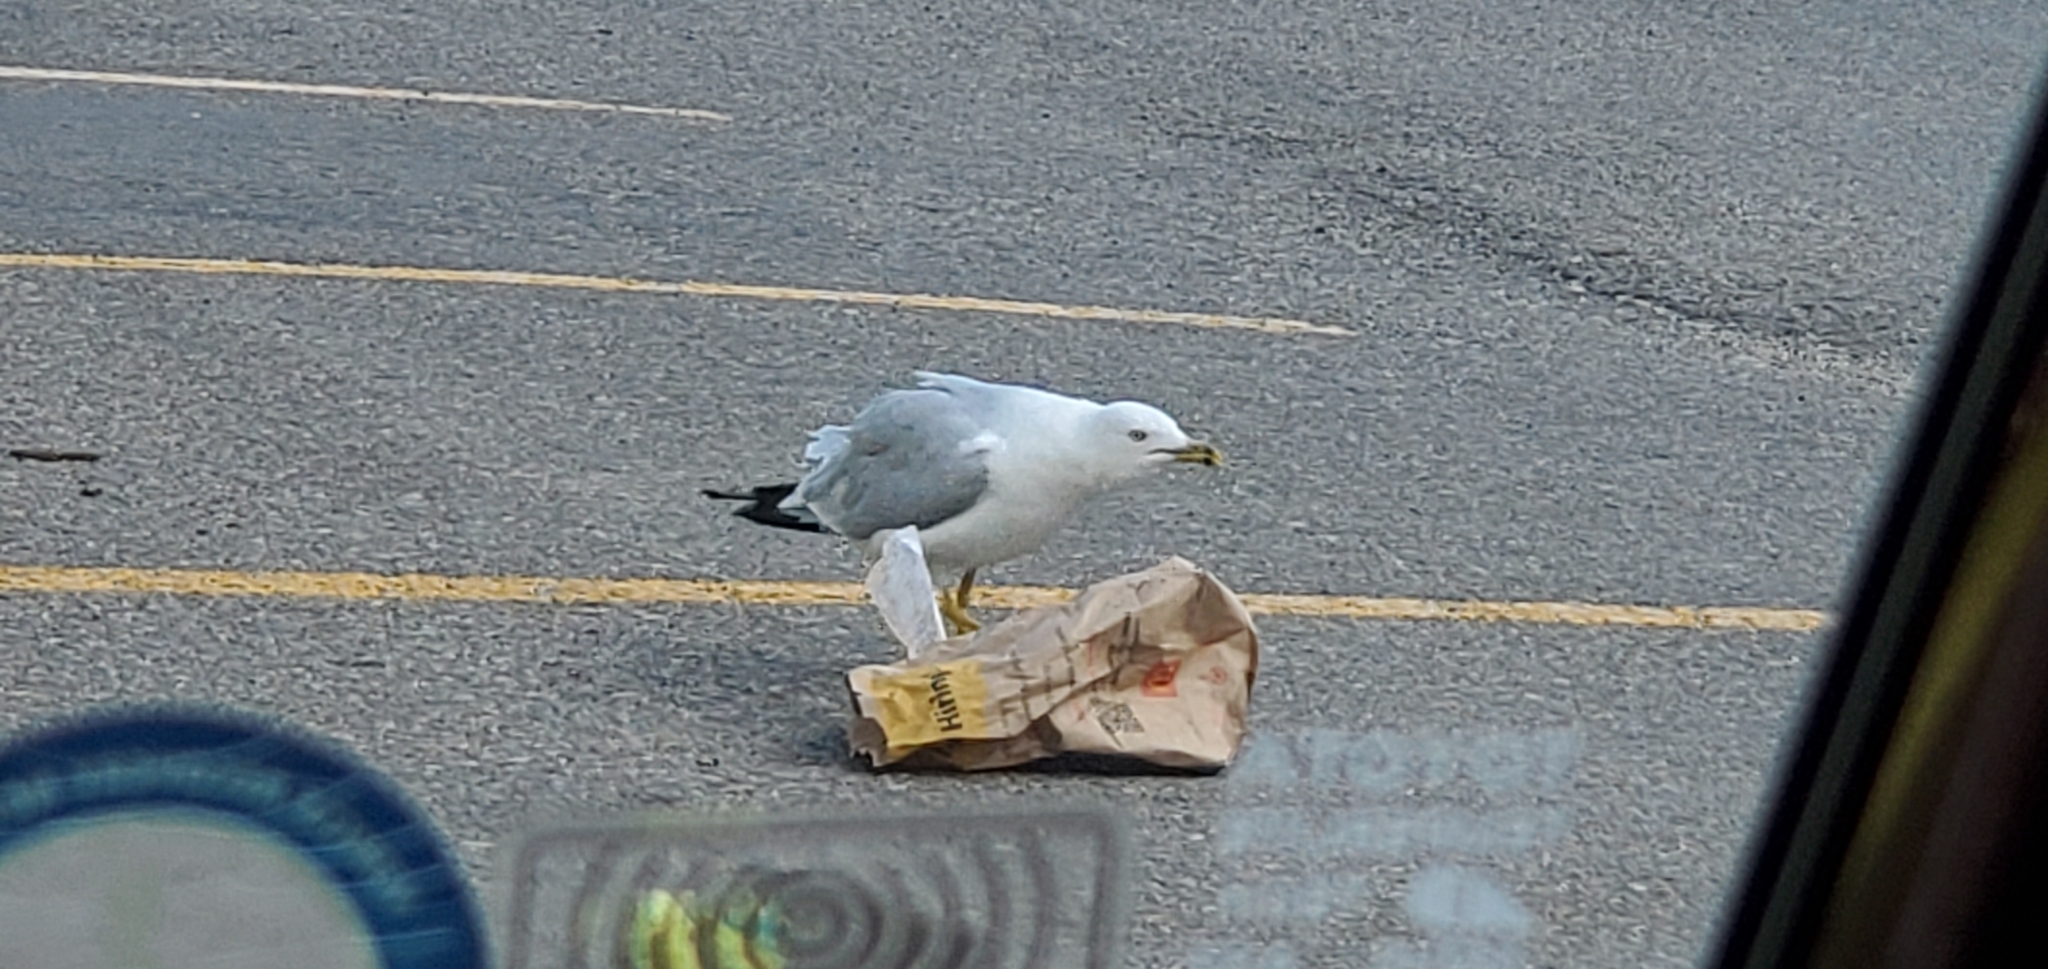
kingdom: Animalia
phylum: Chordata
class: Aves
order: Charadriiformes
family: Laridae
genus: Larus
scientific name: Larus delawarensis
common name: Ring-billed gull
